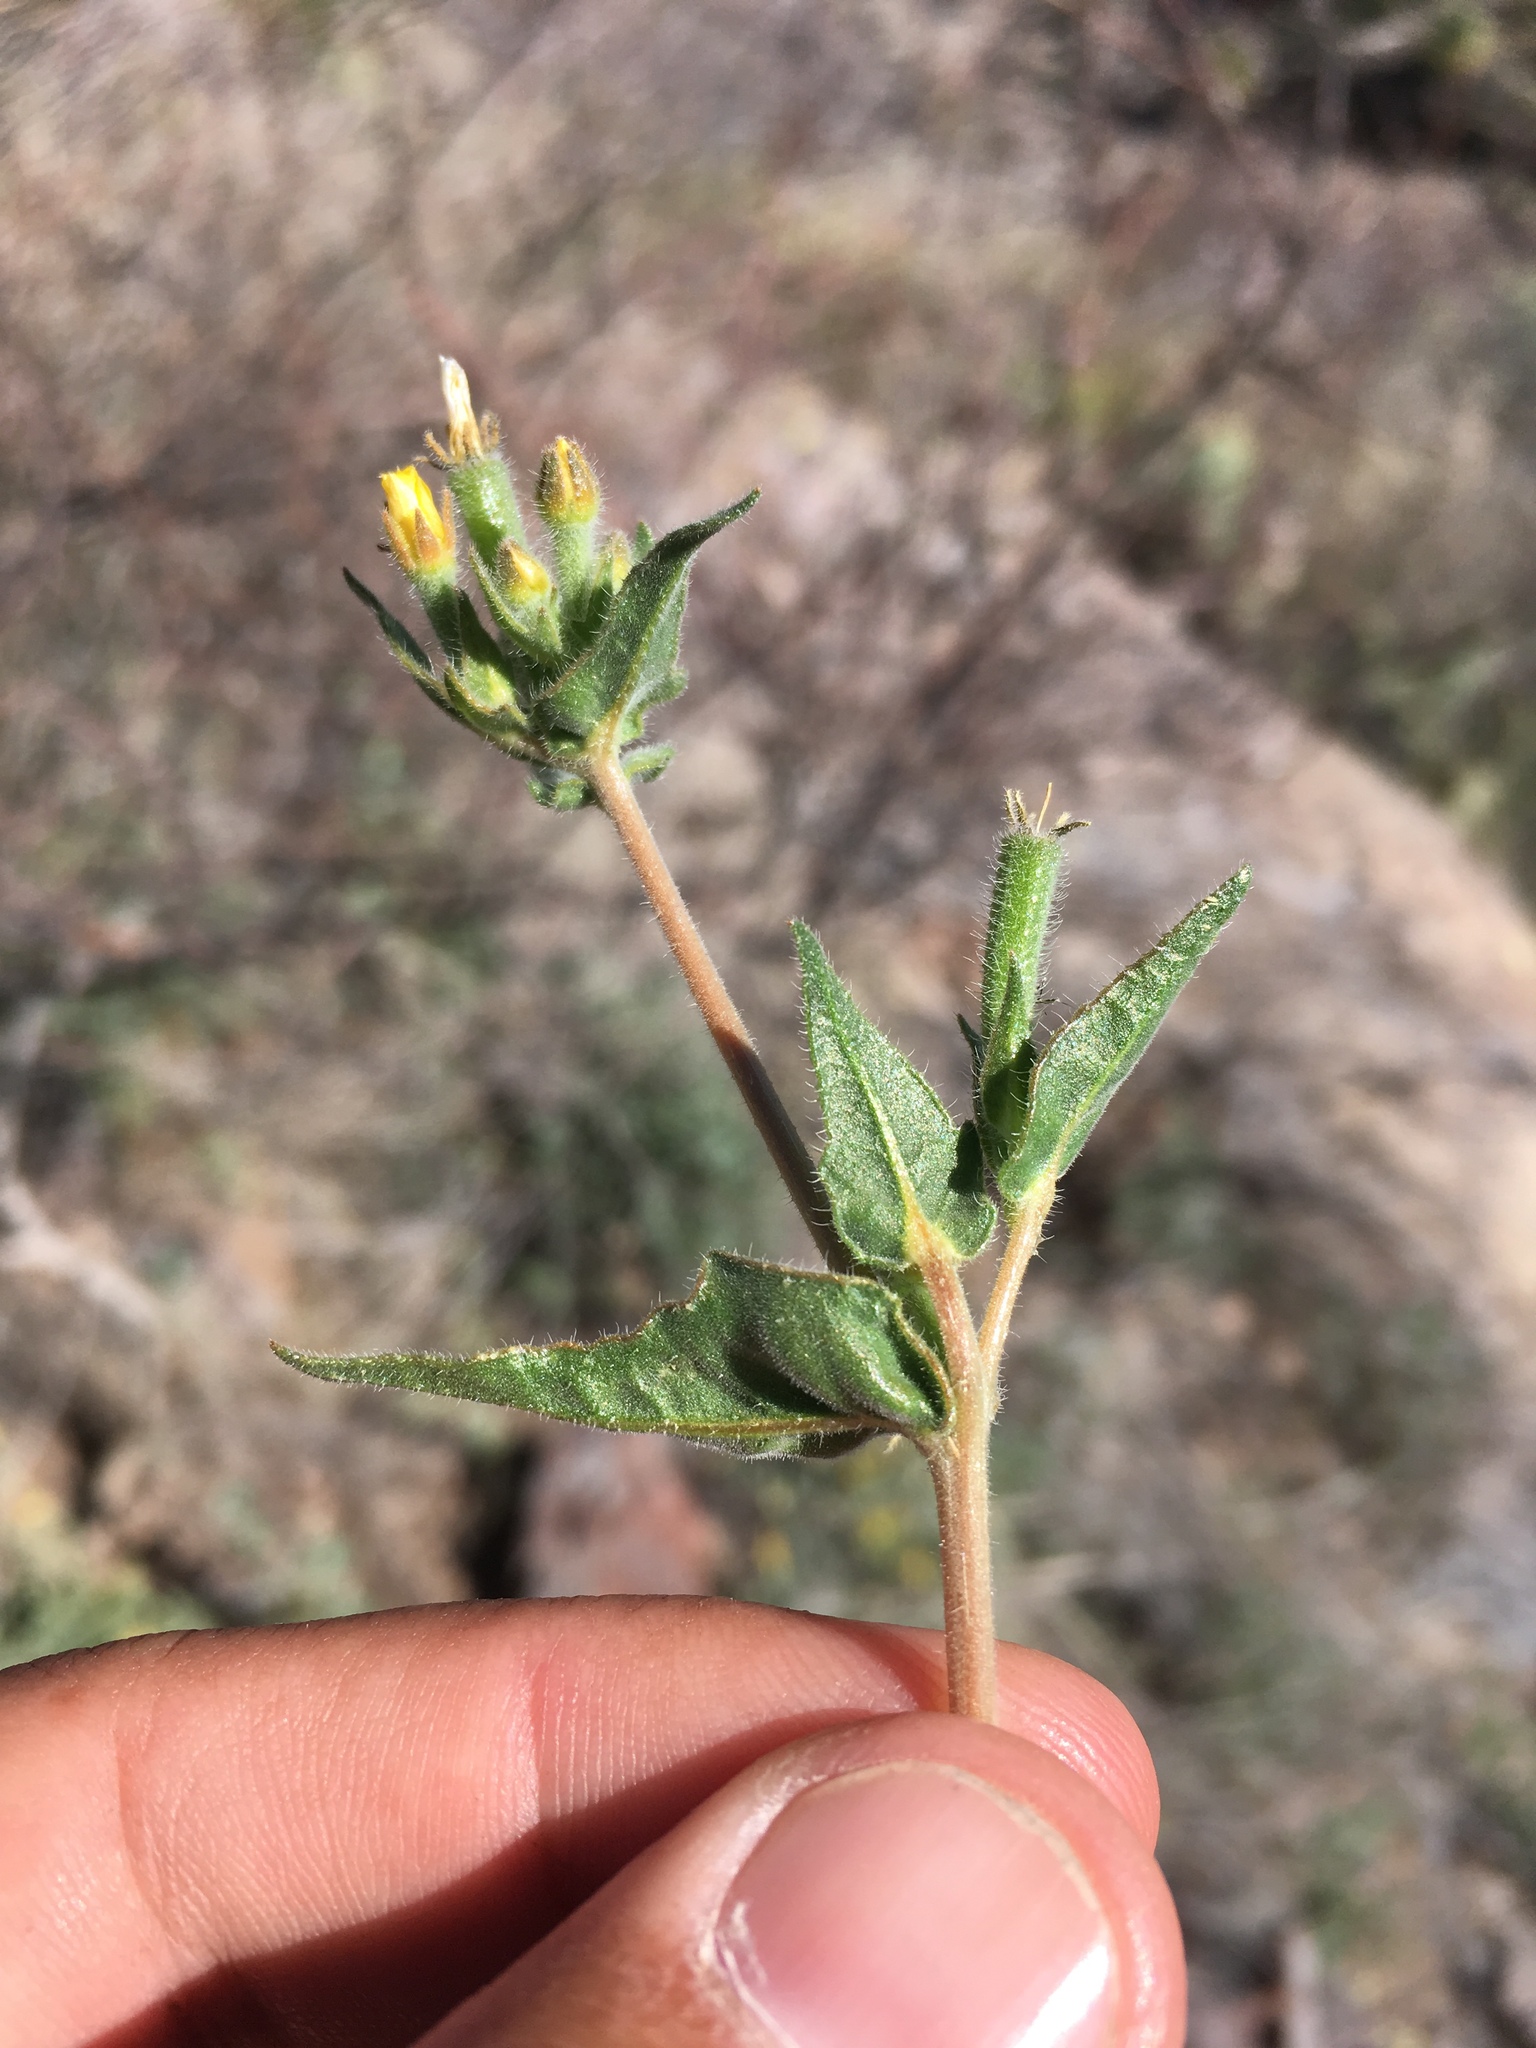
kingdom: Plantae
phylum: Tracheophyta
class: Magnoliopsida
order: Cornales
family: Loasaceae
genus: Mentzelia
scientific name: Mentzelia montana
